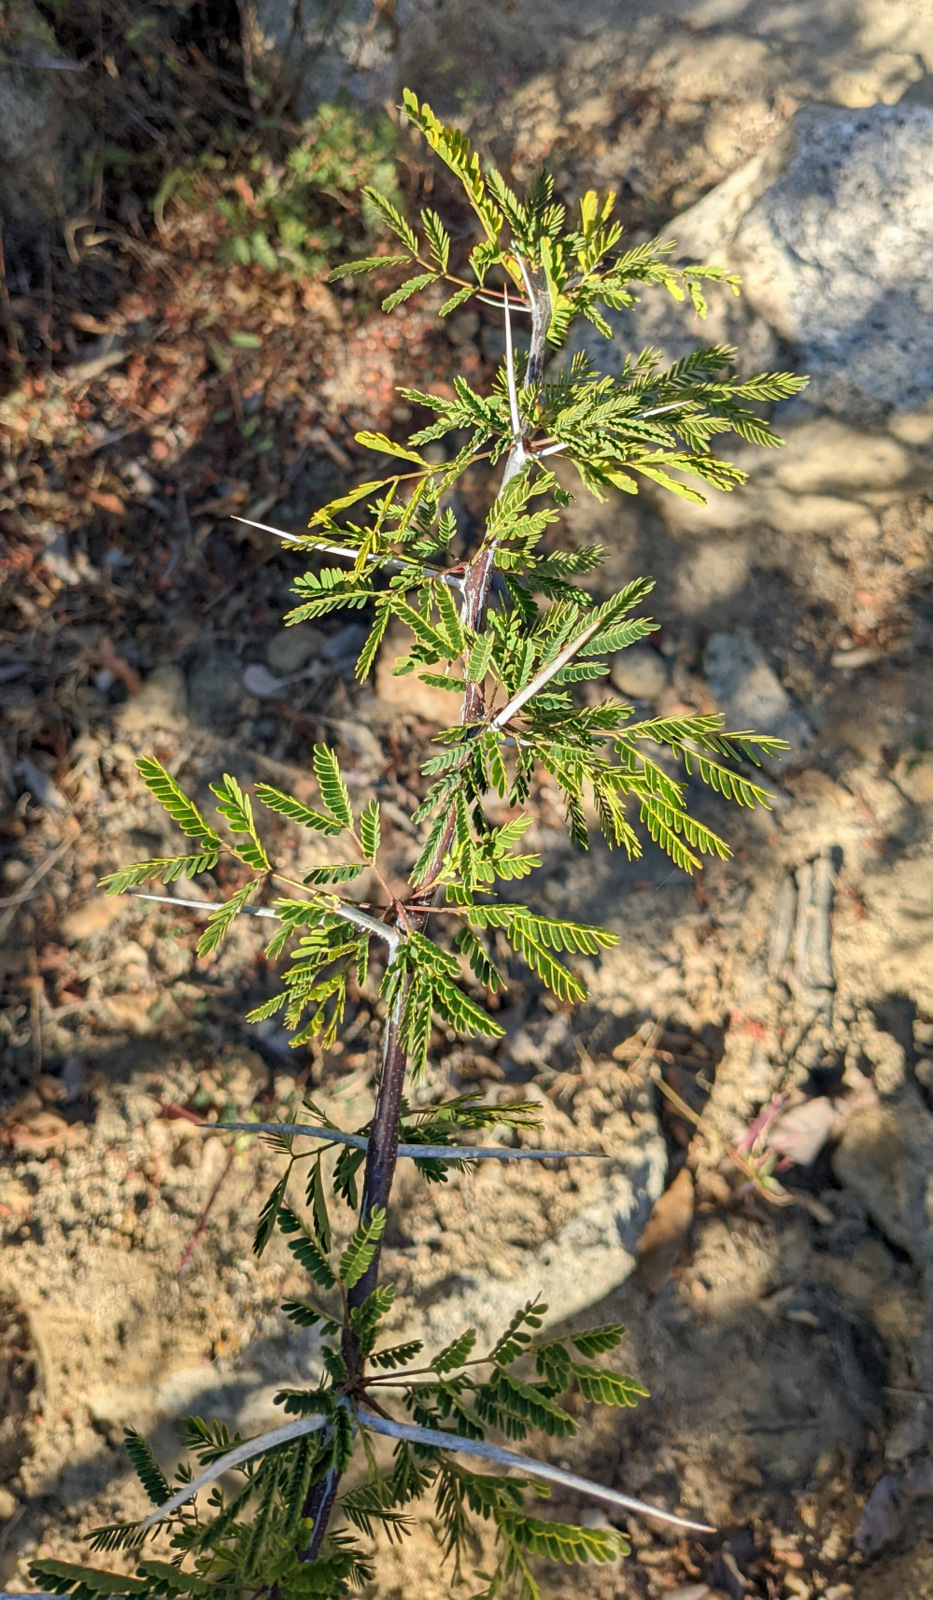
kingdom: Plantae
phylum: Tracheophyta
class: Magnoliopsida
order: Fabales
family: Fabaceae
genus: Vachellia
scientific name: Vachellia farnesiana
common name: Sweet acacia
